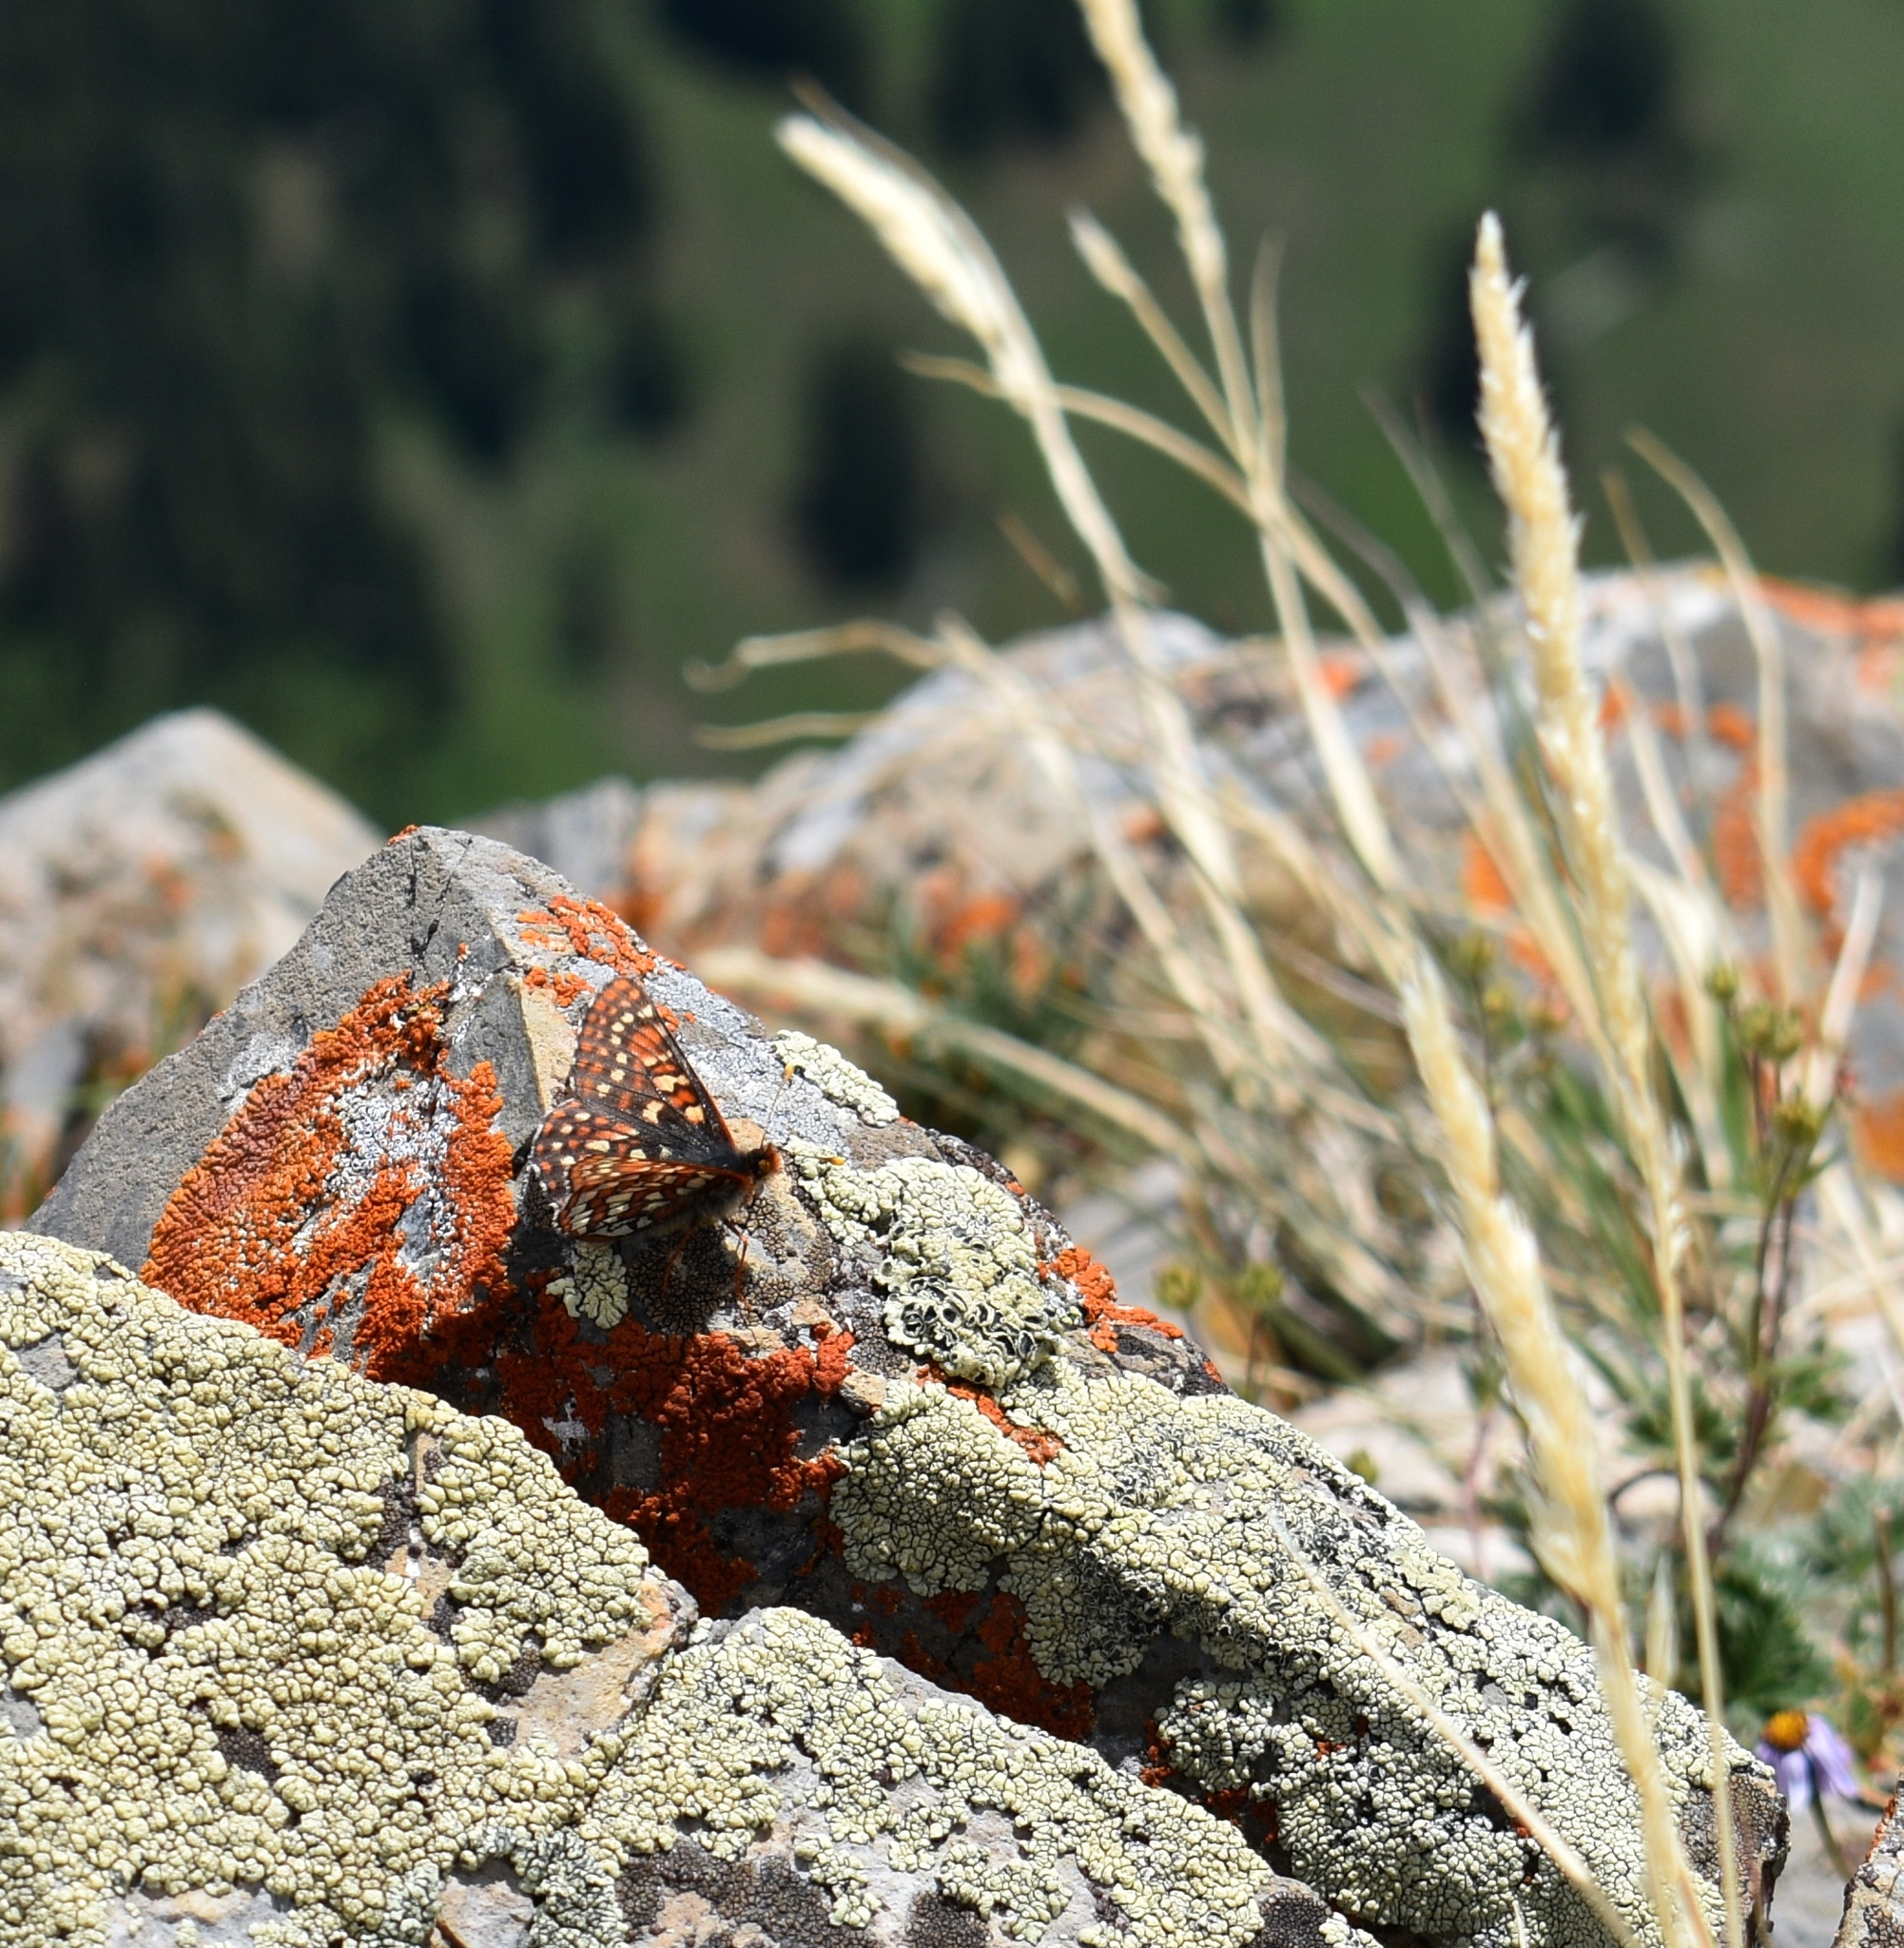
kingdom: Animalia
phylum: Arthropoda
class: Insecta
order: Lepidoptera
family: Nymphalidae
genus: Occidryas
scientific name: Occidryas anicia
